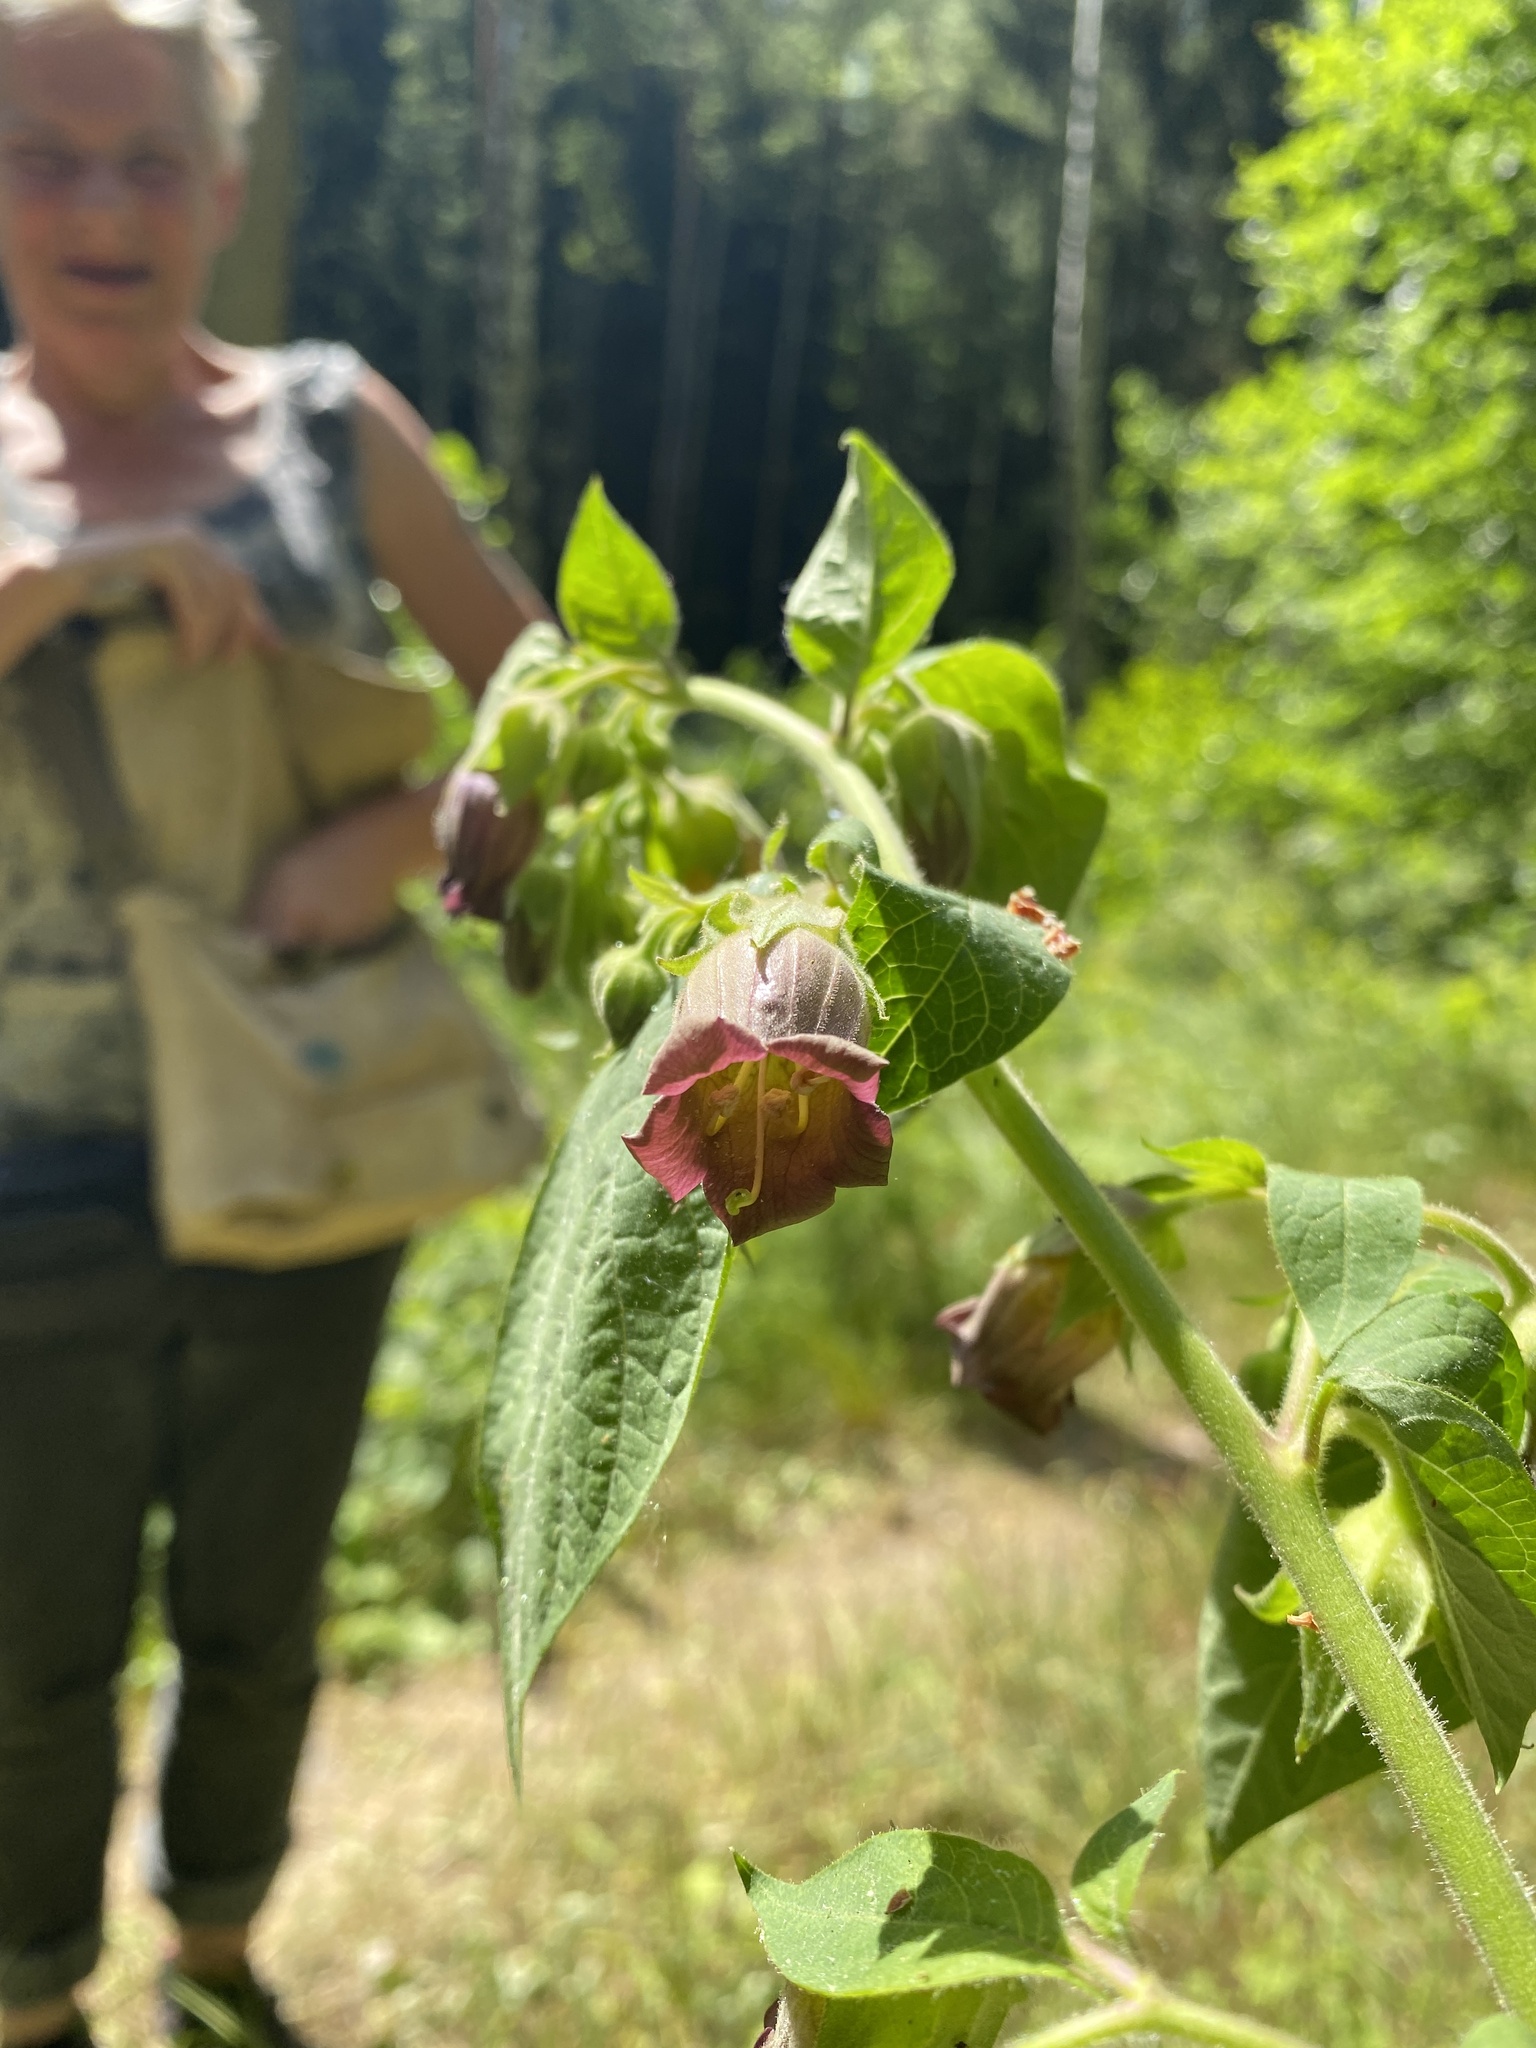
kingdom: Plantae
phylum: Tracheophyta
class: Magnoliopsida
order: Solanales
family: Solanaceae
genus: Atropa
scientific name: Atropa belladonna
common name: Deadly nightshade
